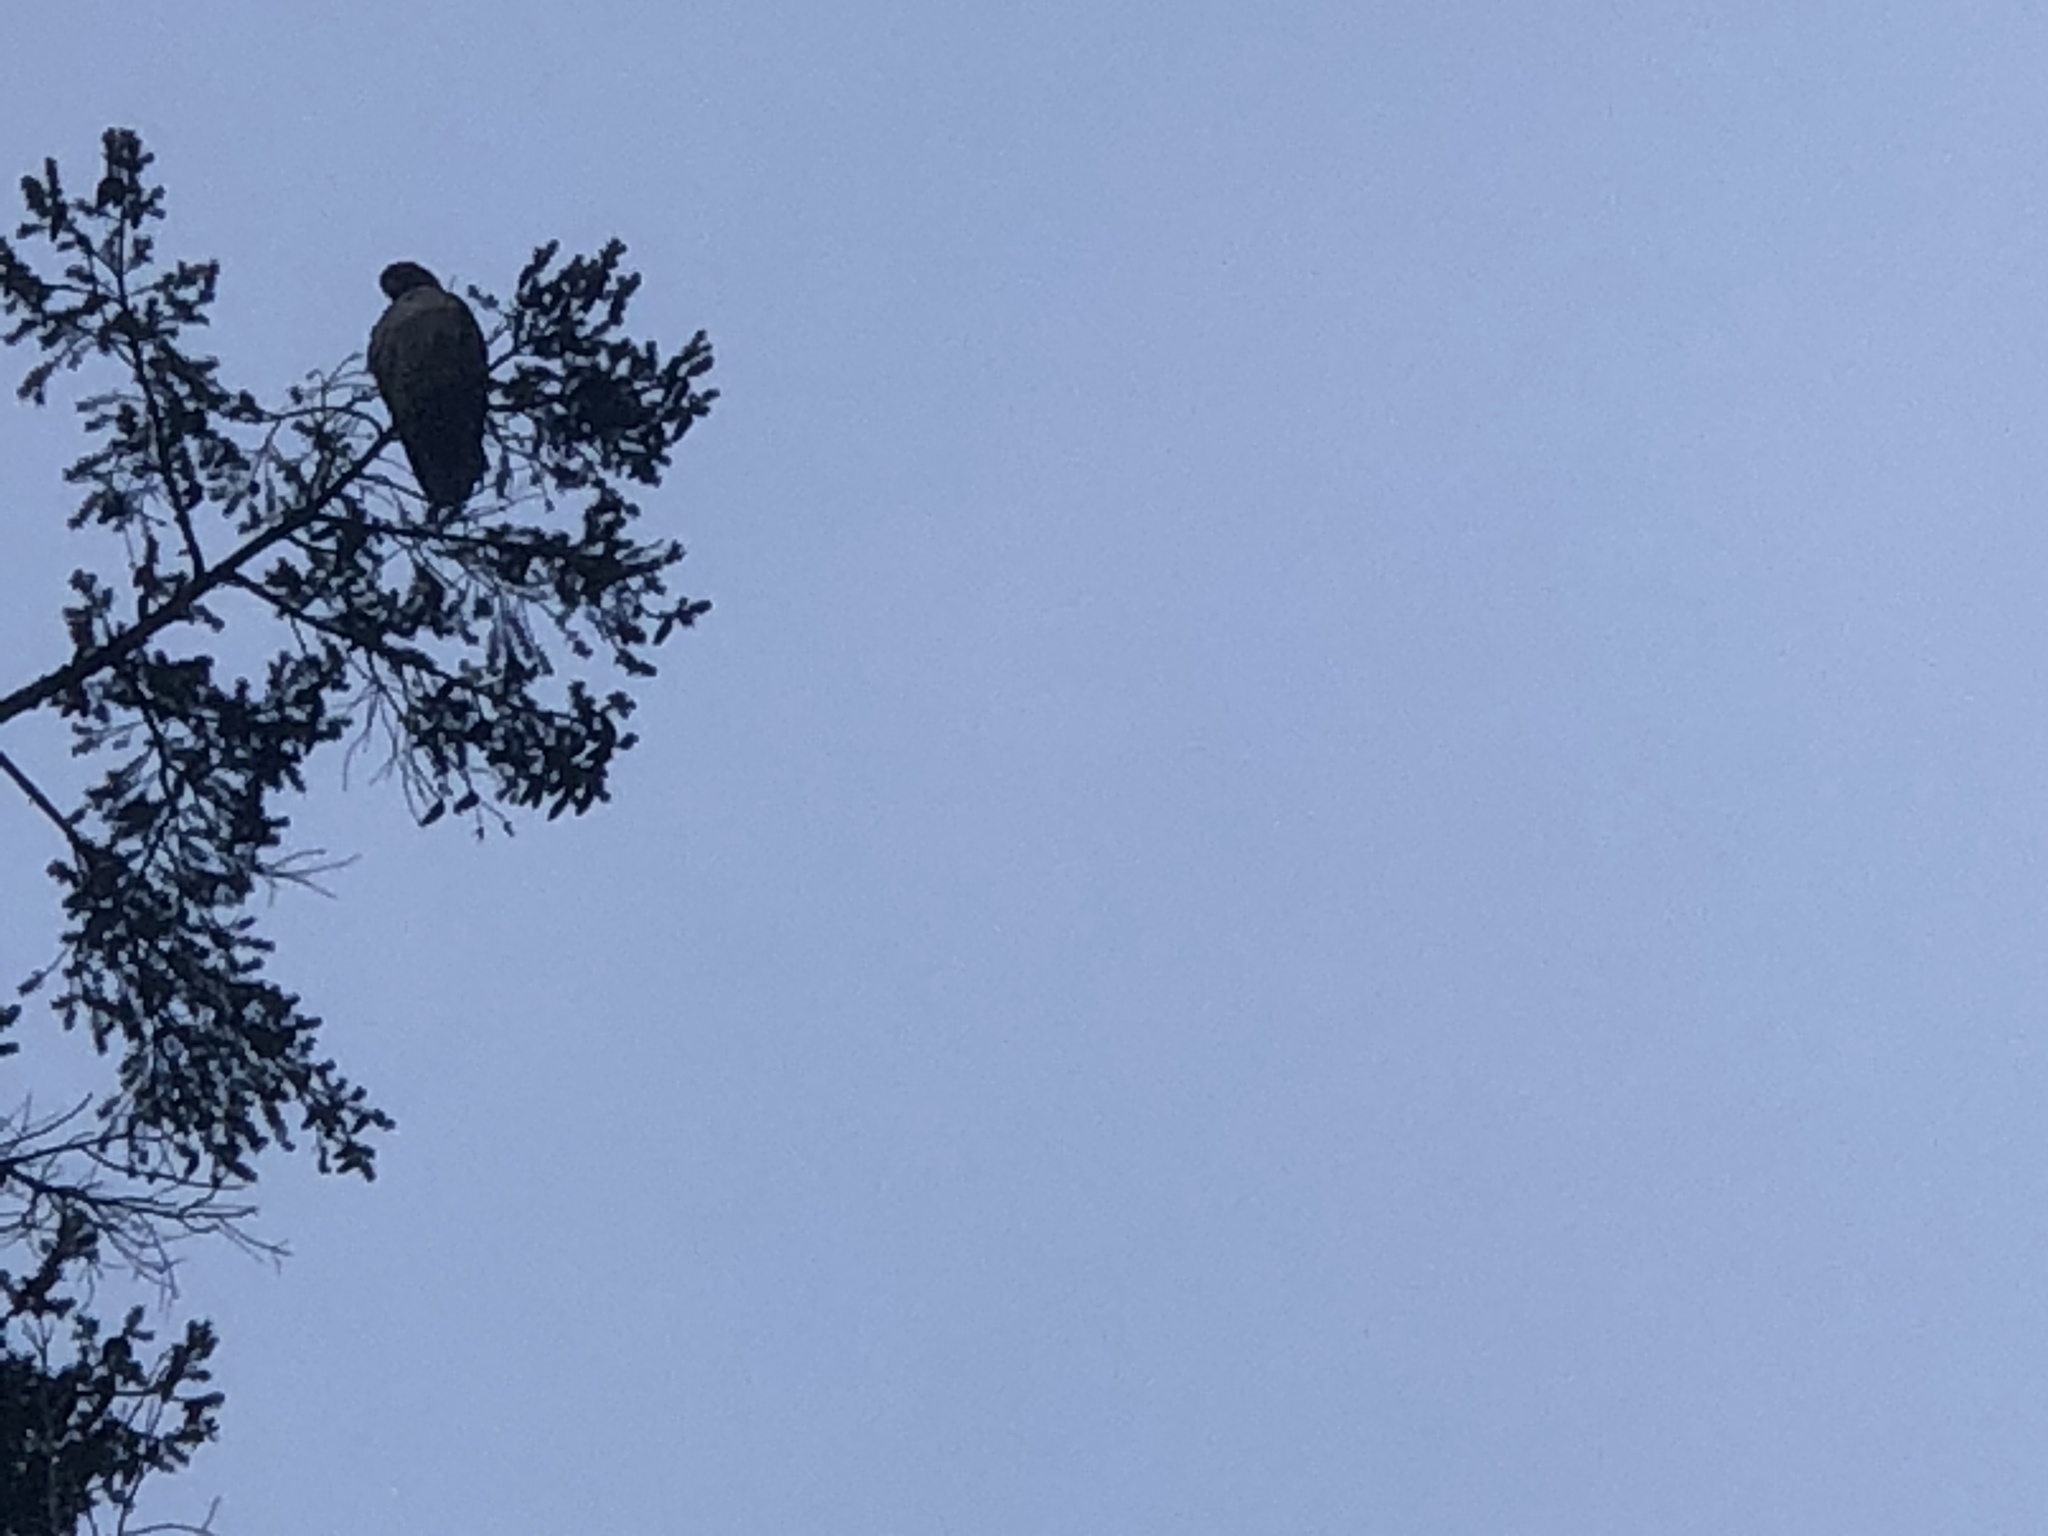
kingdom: Animalia
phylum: Chordata
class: Aves
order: Accipitriformes
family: Accipitridae
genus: Buteo
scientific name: Buteo jamaicensis
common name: Red-tailed hawk
